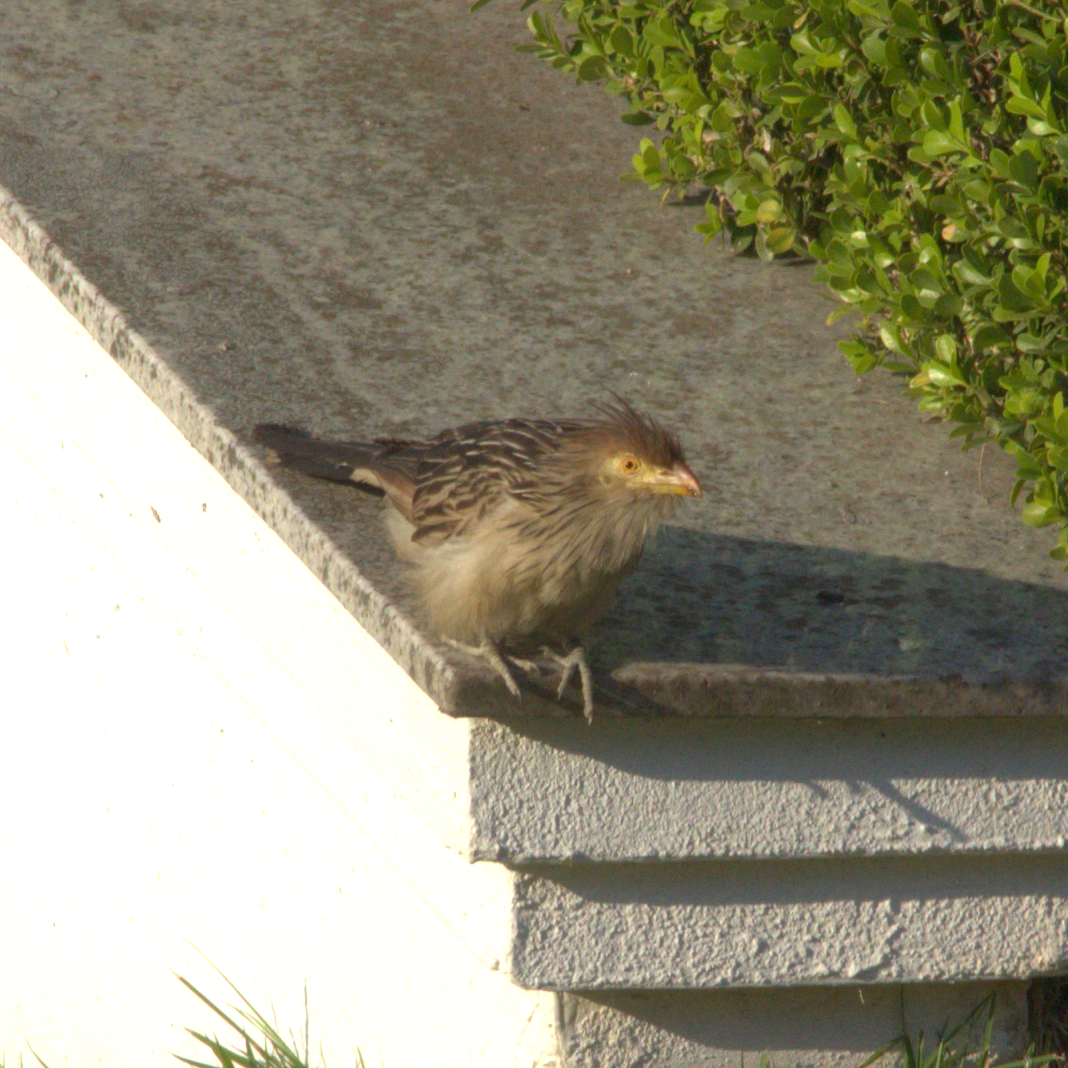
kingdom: Animalia
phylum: Chordata
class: Aves
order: Cuculiformes
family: Cuculidae
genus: Guira
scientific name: Guira guira
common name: Guira cuckoo
